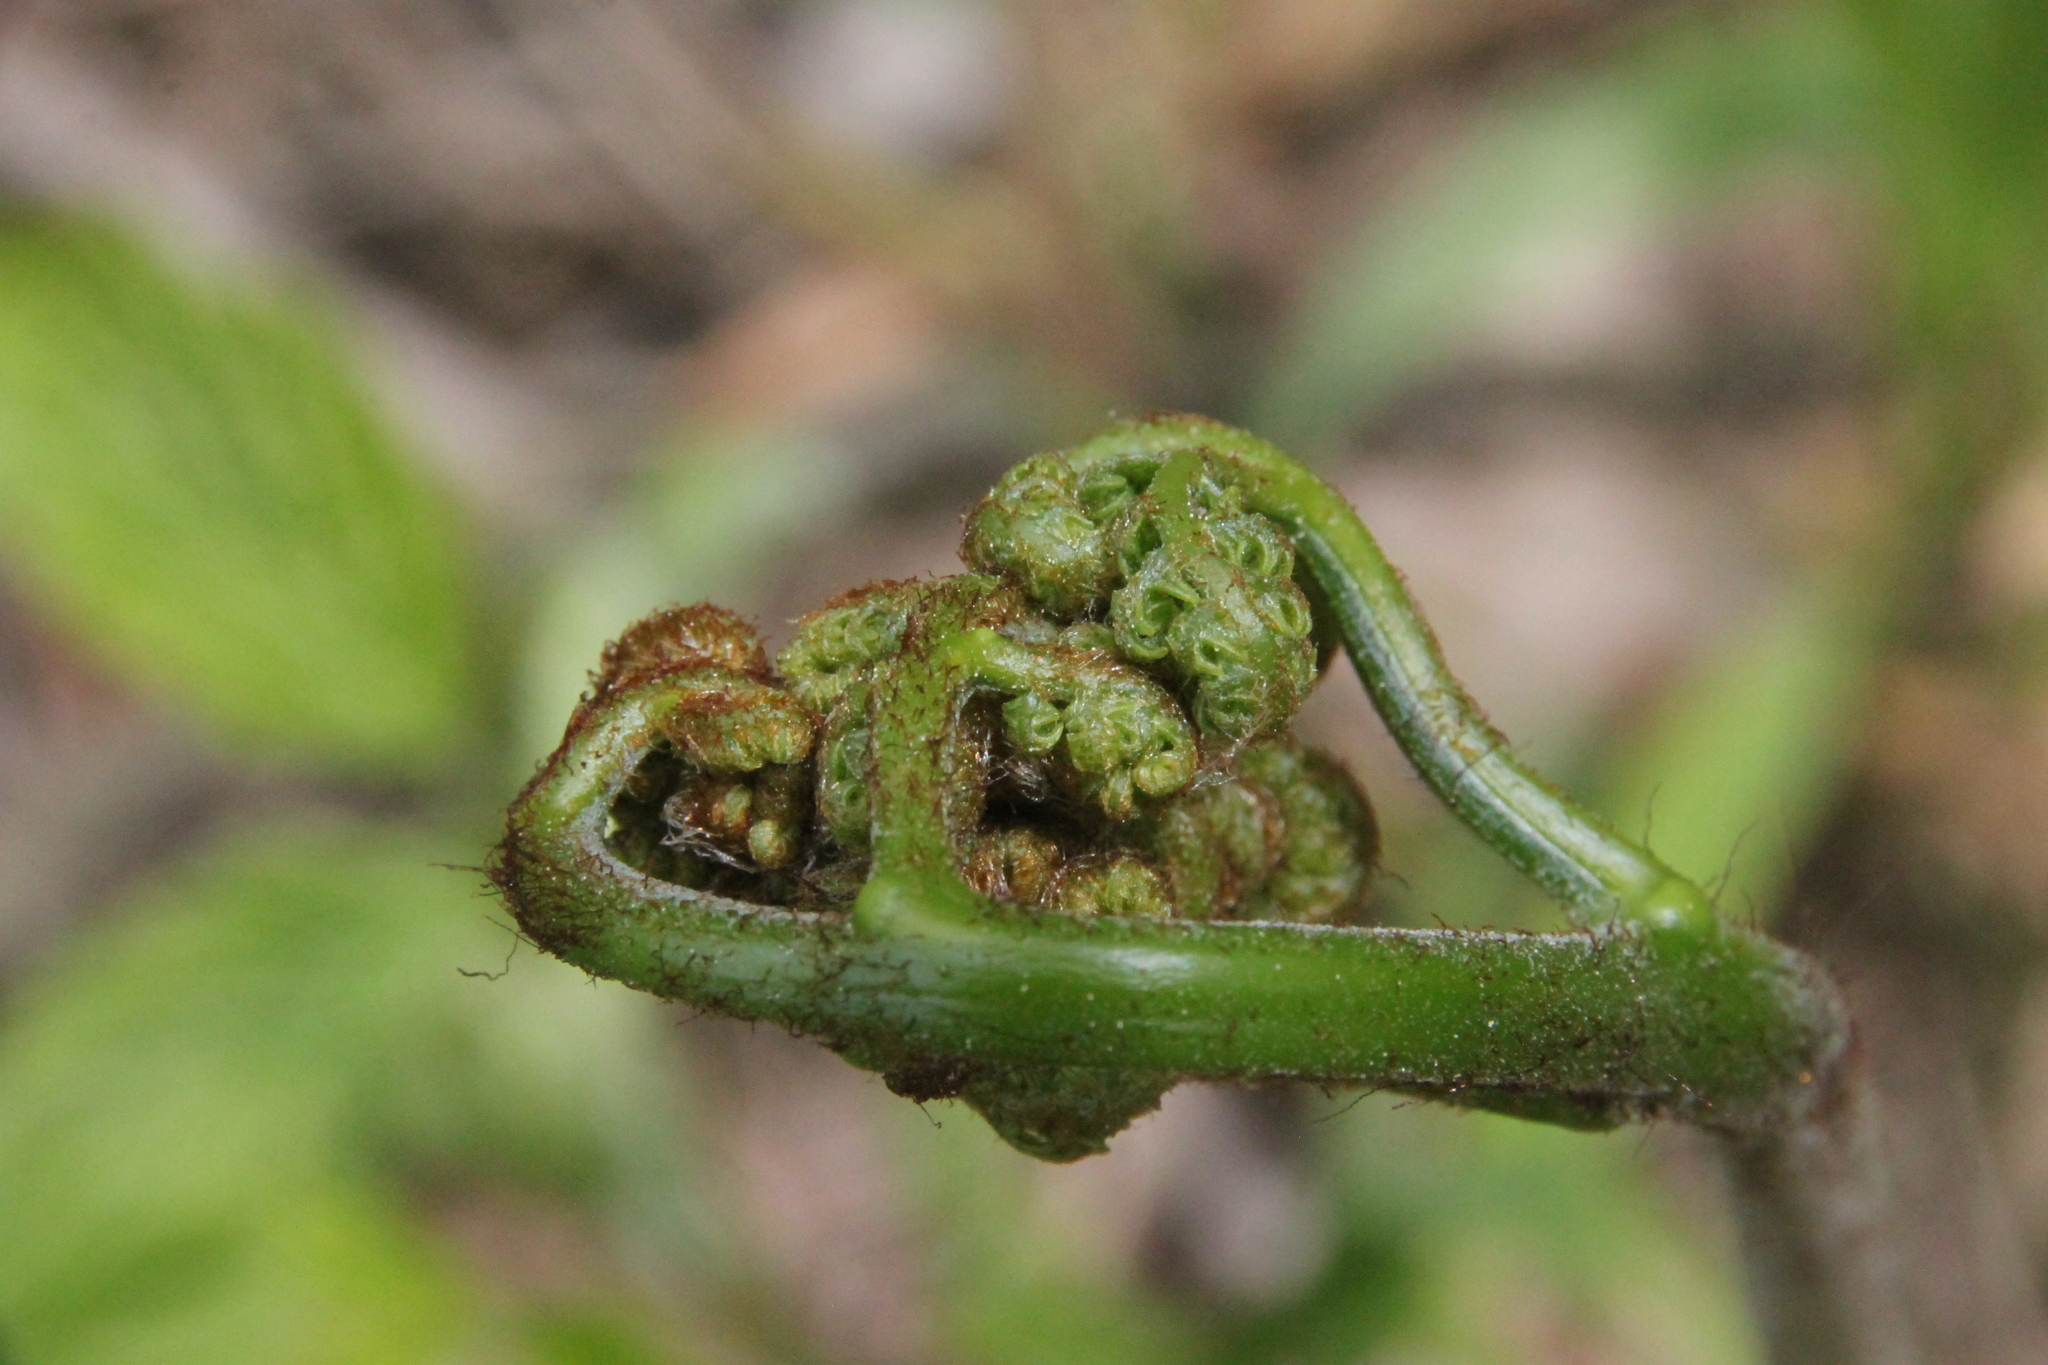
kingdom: Plantae
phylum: Tracheophyta
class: Polypodiopsida
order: Polypodiales
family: Dennstaedtiaceae
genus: Pteridium
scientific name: Pteridium aquilinum
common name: Bracken
